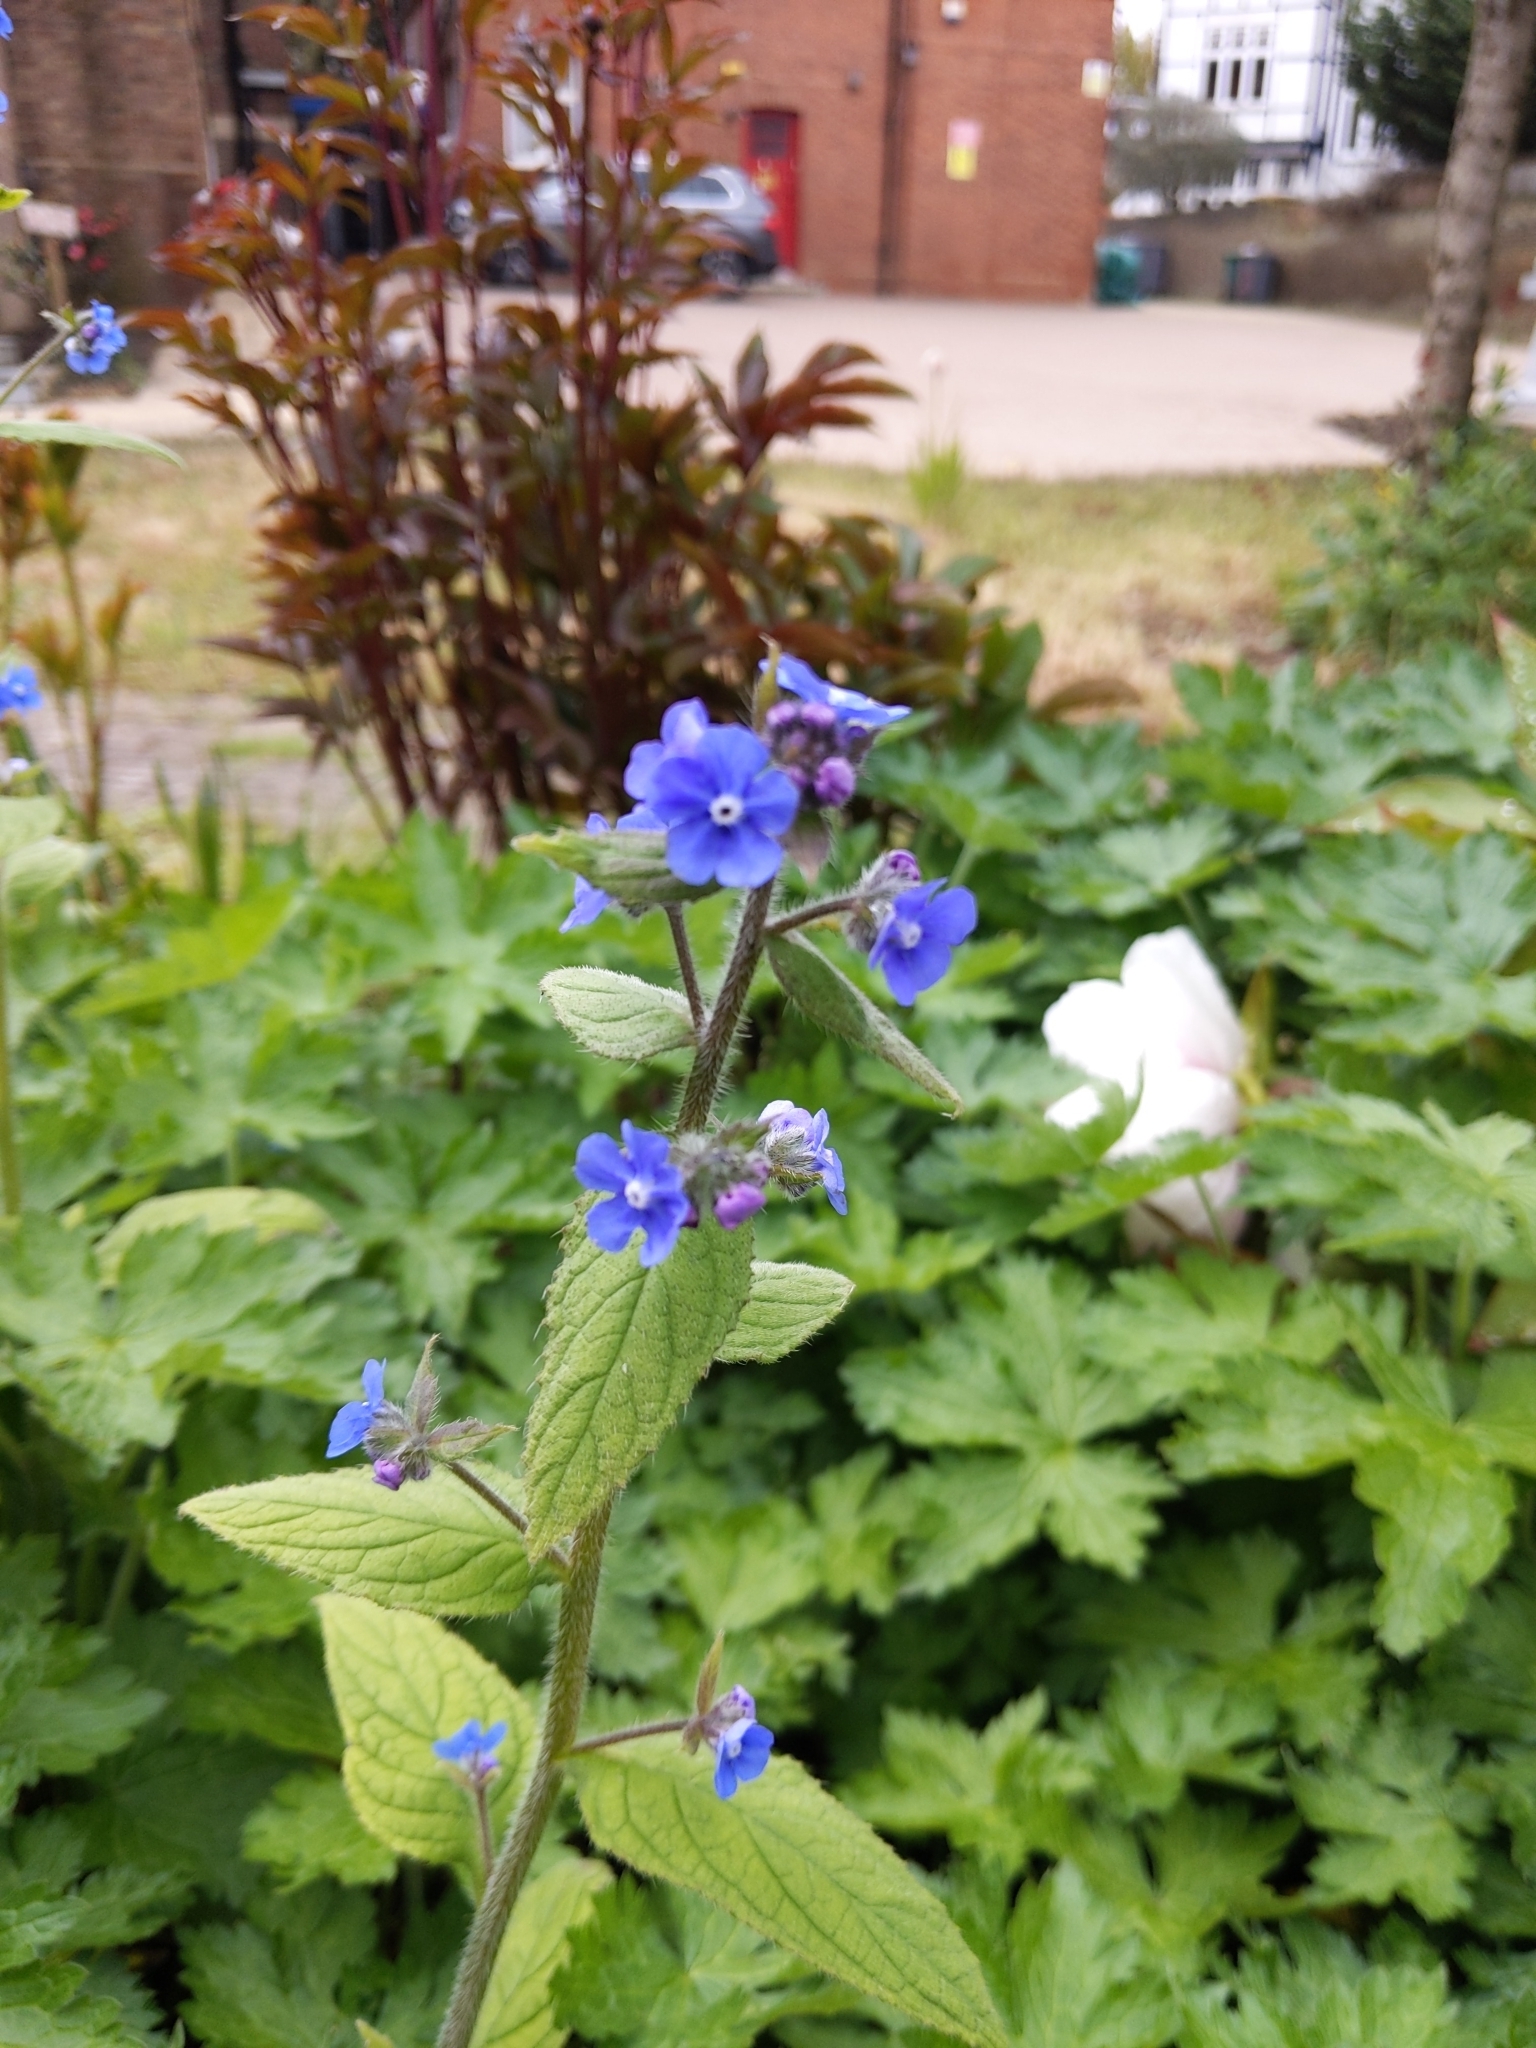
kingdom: Plantae
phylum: Tracheophyta
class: Magnoliopsida
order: Boraginales
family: Boraginaceae
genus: Pentaglottis
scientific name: Pentaglottis sempervirens
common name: Green alkanet
